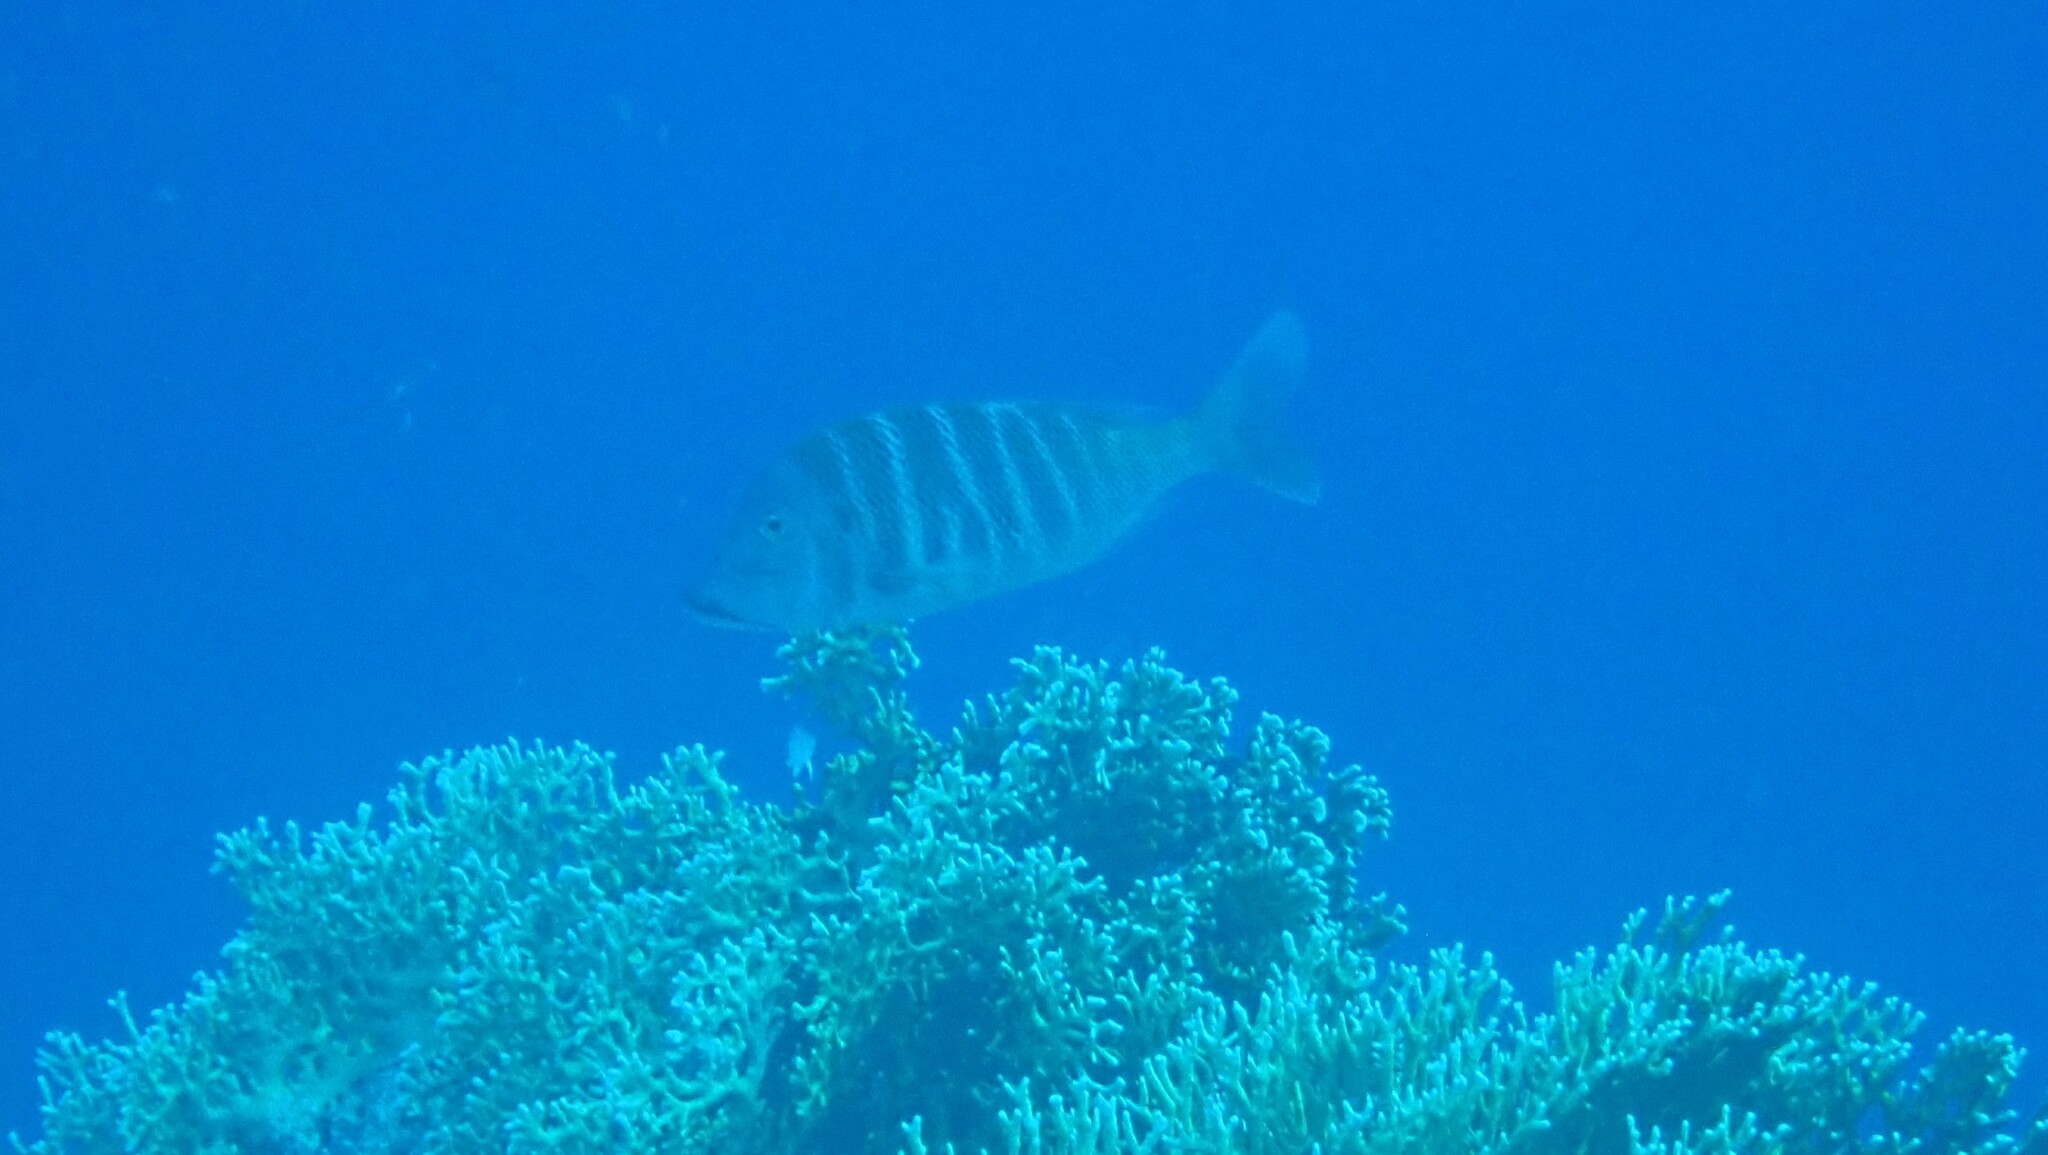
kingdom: Animalia
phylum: Chordata
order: Perciformes
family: Lethrinidae
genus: Lethrinus
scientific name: Lethrinus mahsena
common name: Sky emperor
